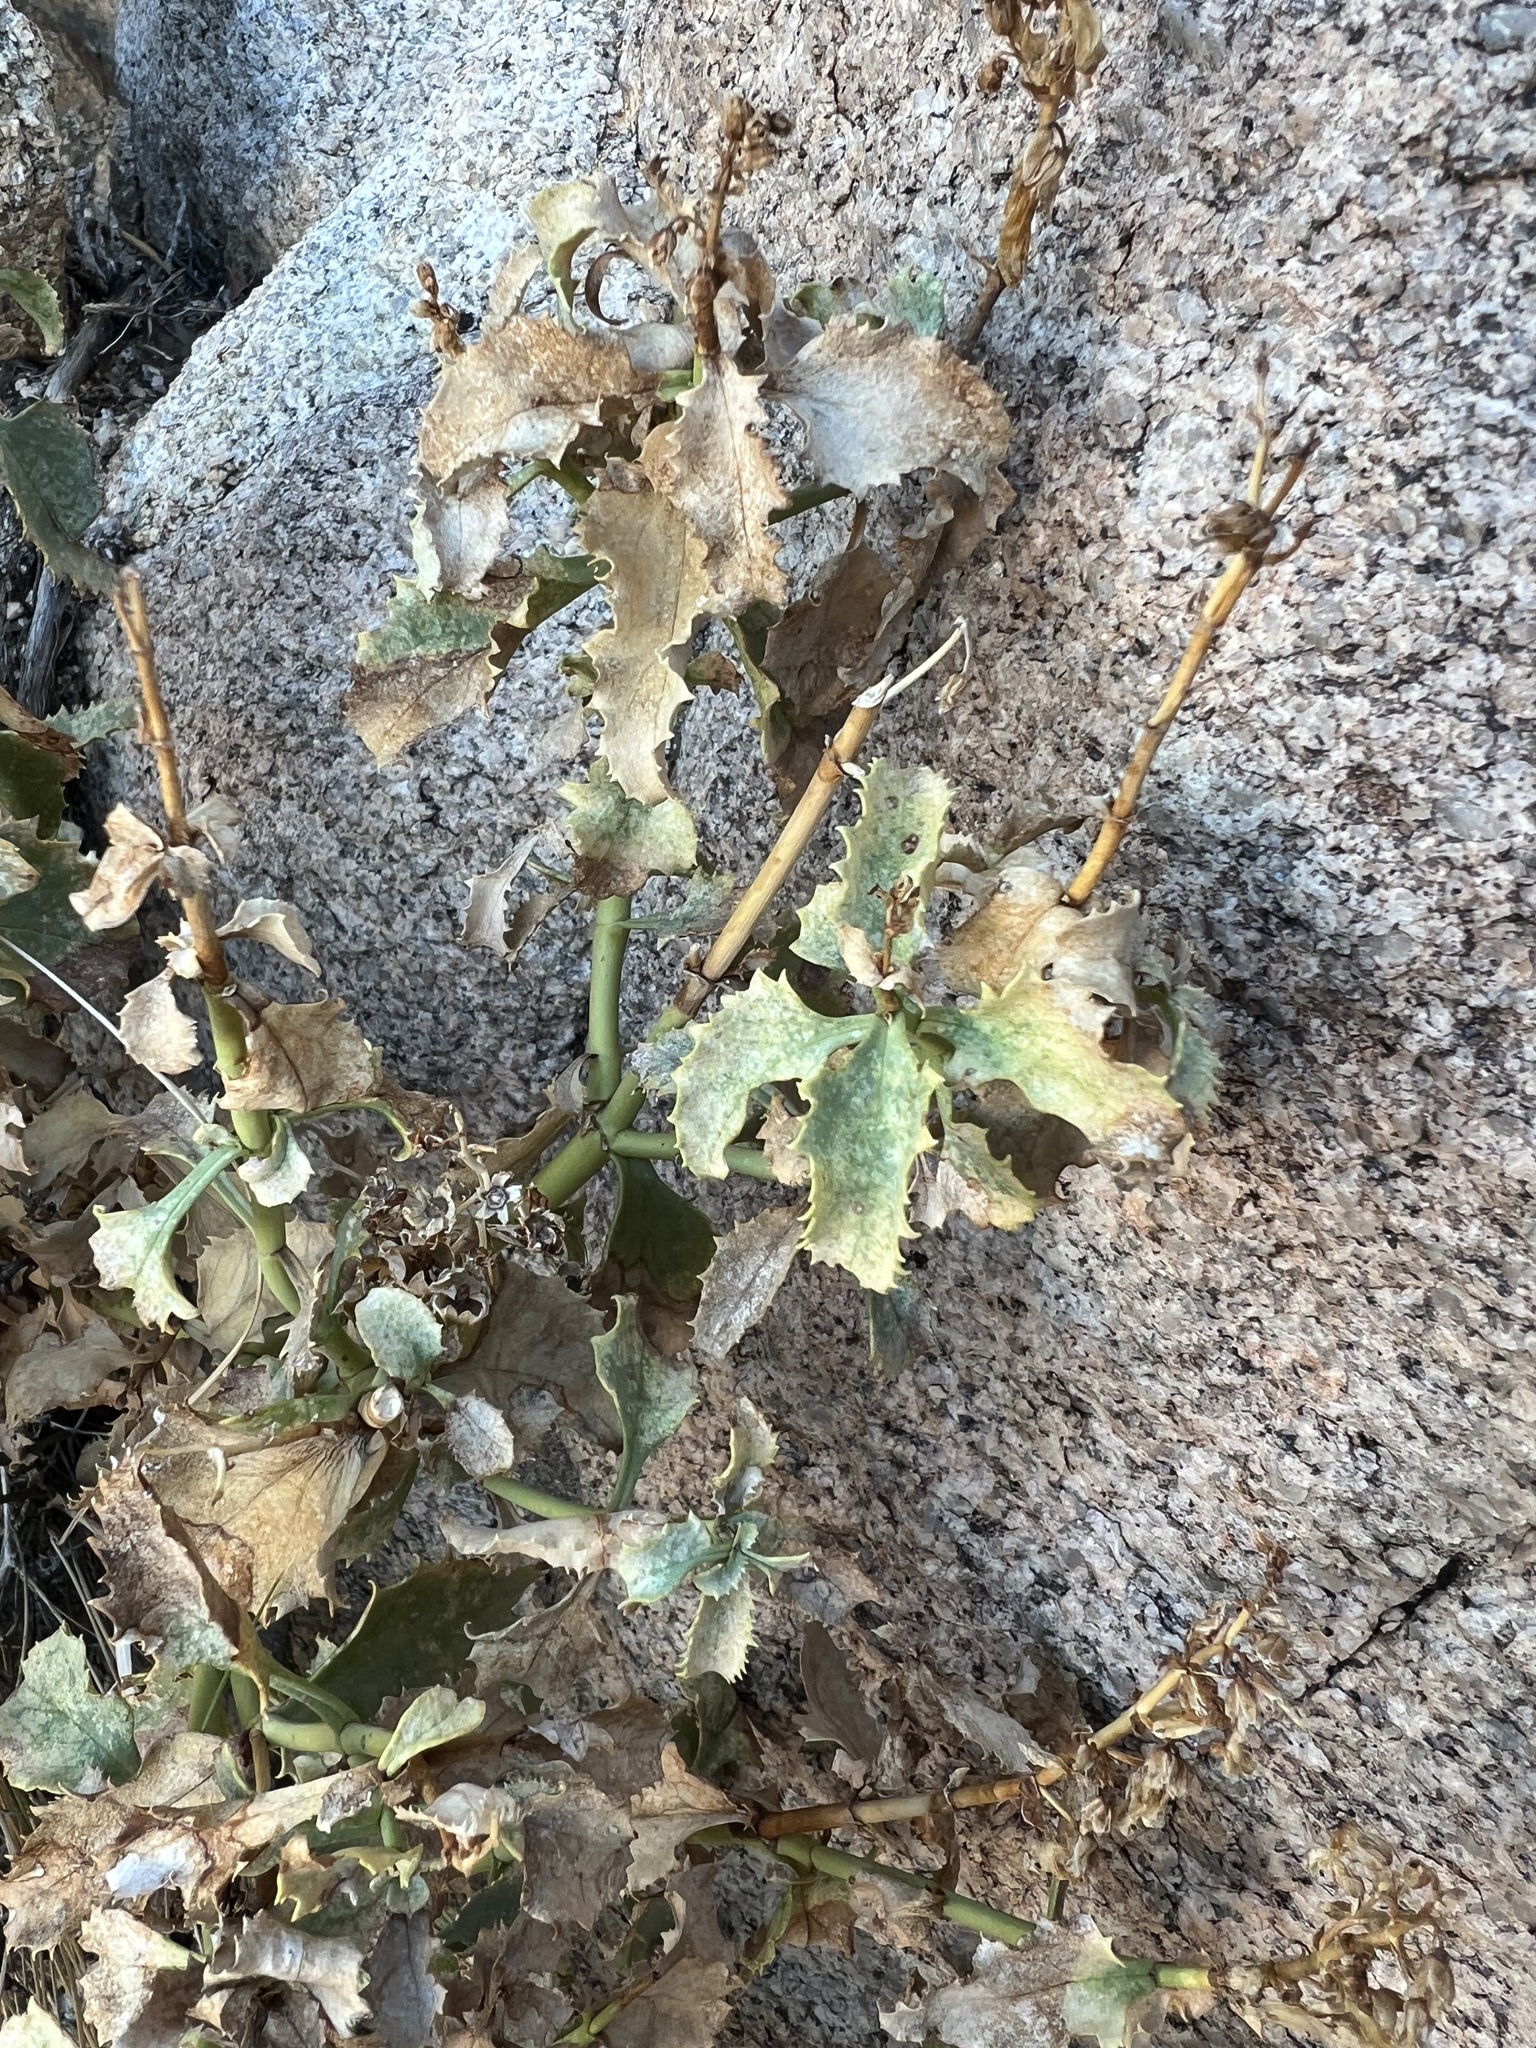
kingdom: Plantae
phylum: Tracheophyta
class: Magnoliopsida
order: Lamiales
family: Plantaginaceae
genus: Penstemon
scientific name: Penstemon clevelandii
